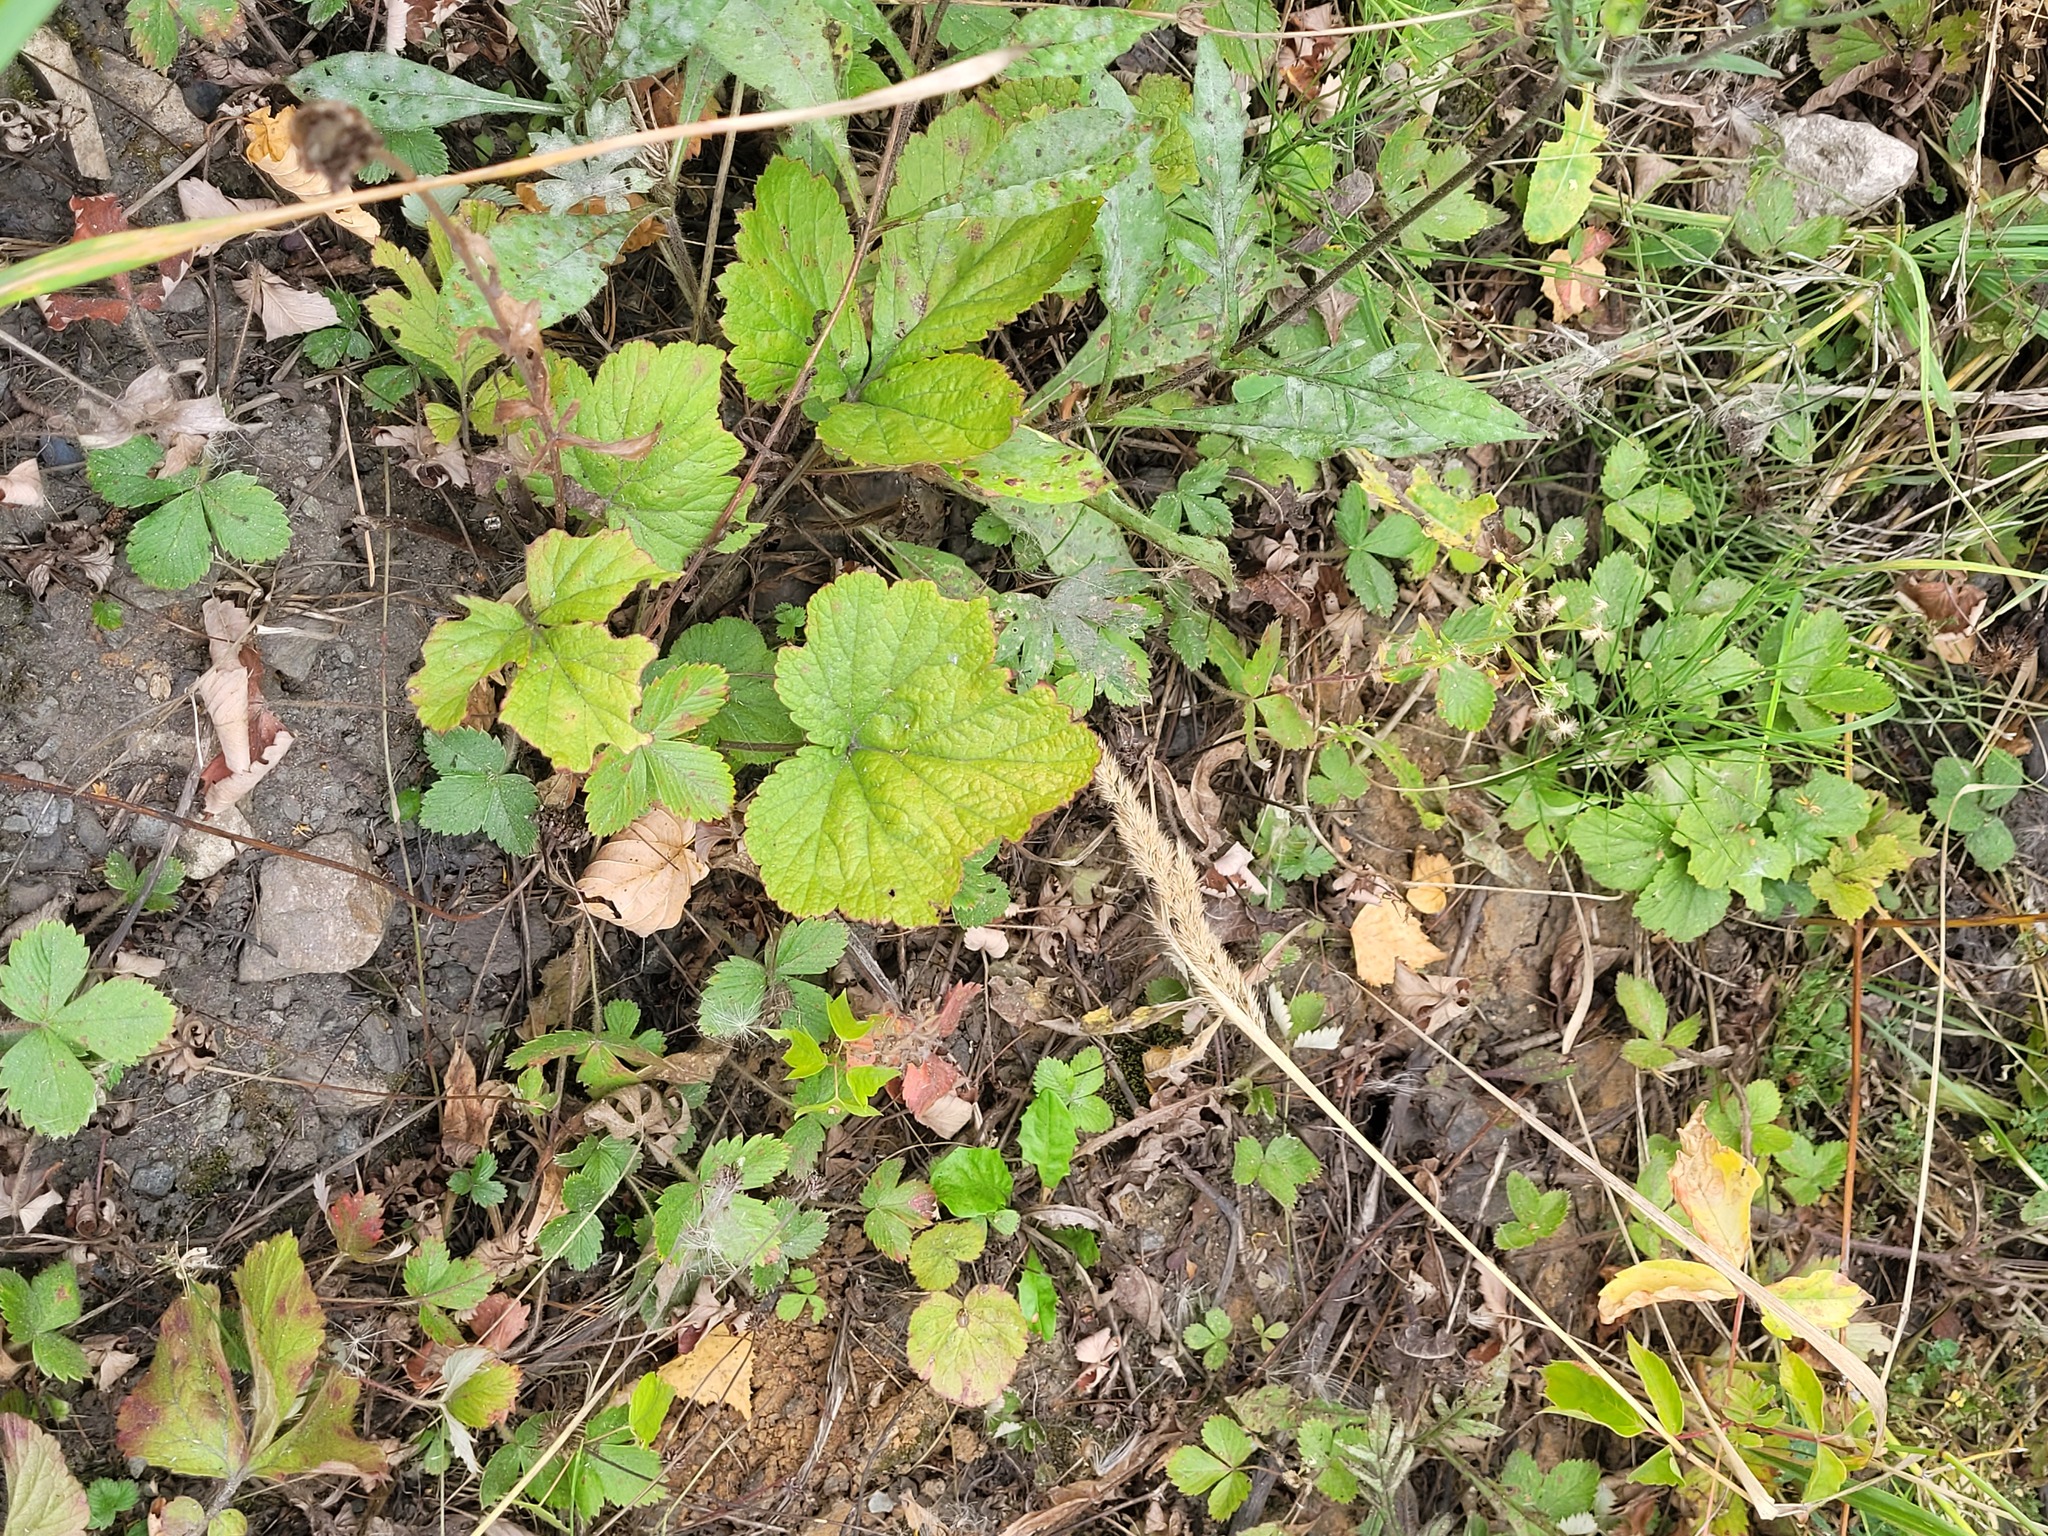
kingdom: Plantae
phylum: Tracheophyta
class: Magnoliopsida
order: Rosales
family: Rosaceae
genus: Geum
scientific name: Geum
